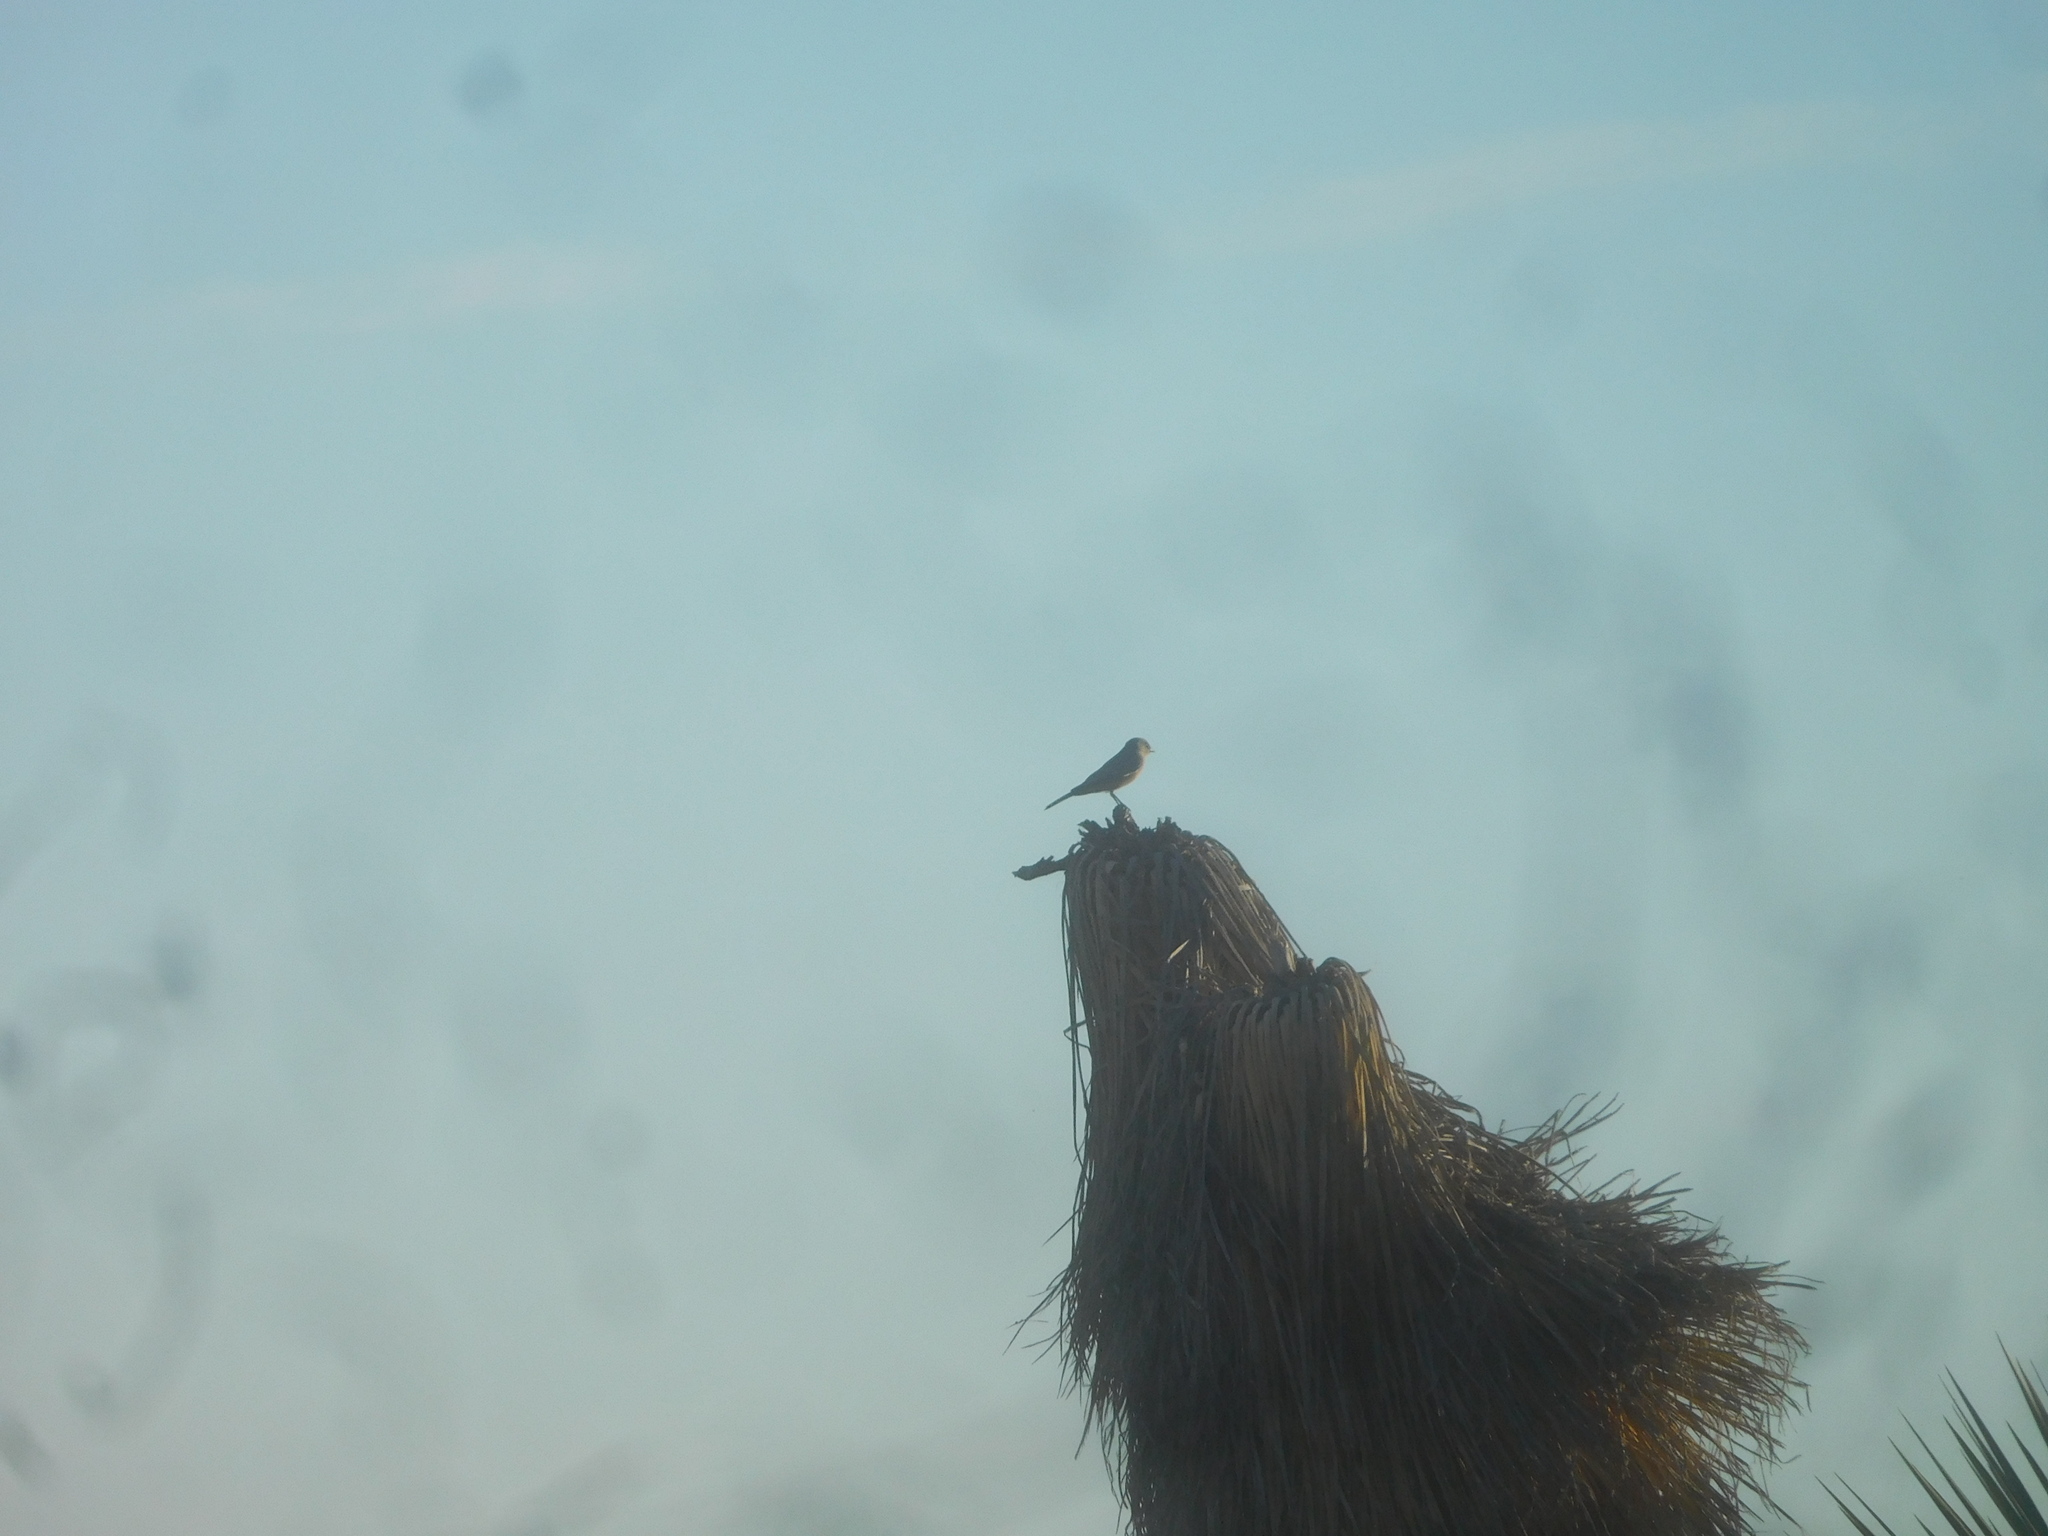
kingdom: Animalia
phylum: Chordata
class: Aves
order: Passeriformes
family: Tyrannidae
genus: Sayornis
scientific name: Sayornis saya
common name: Say's phoebe
